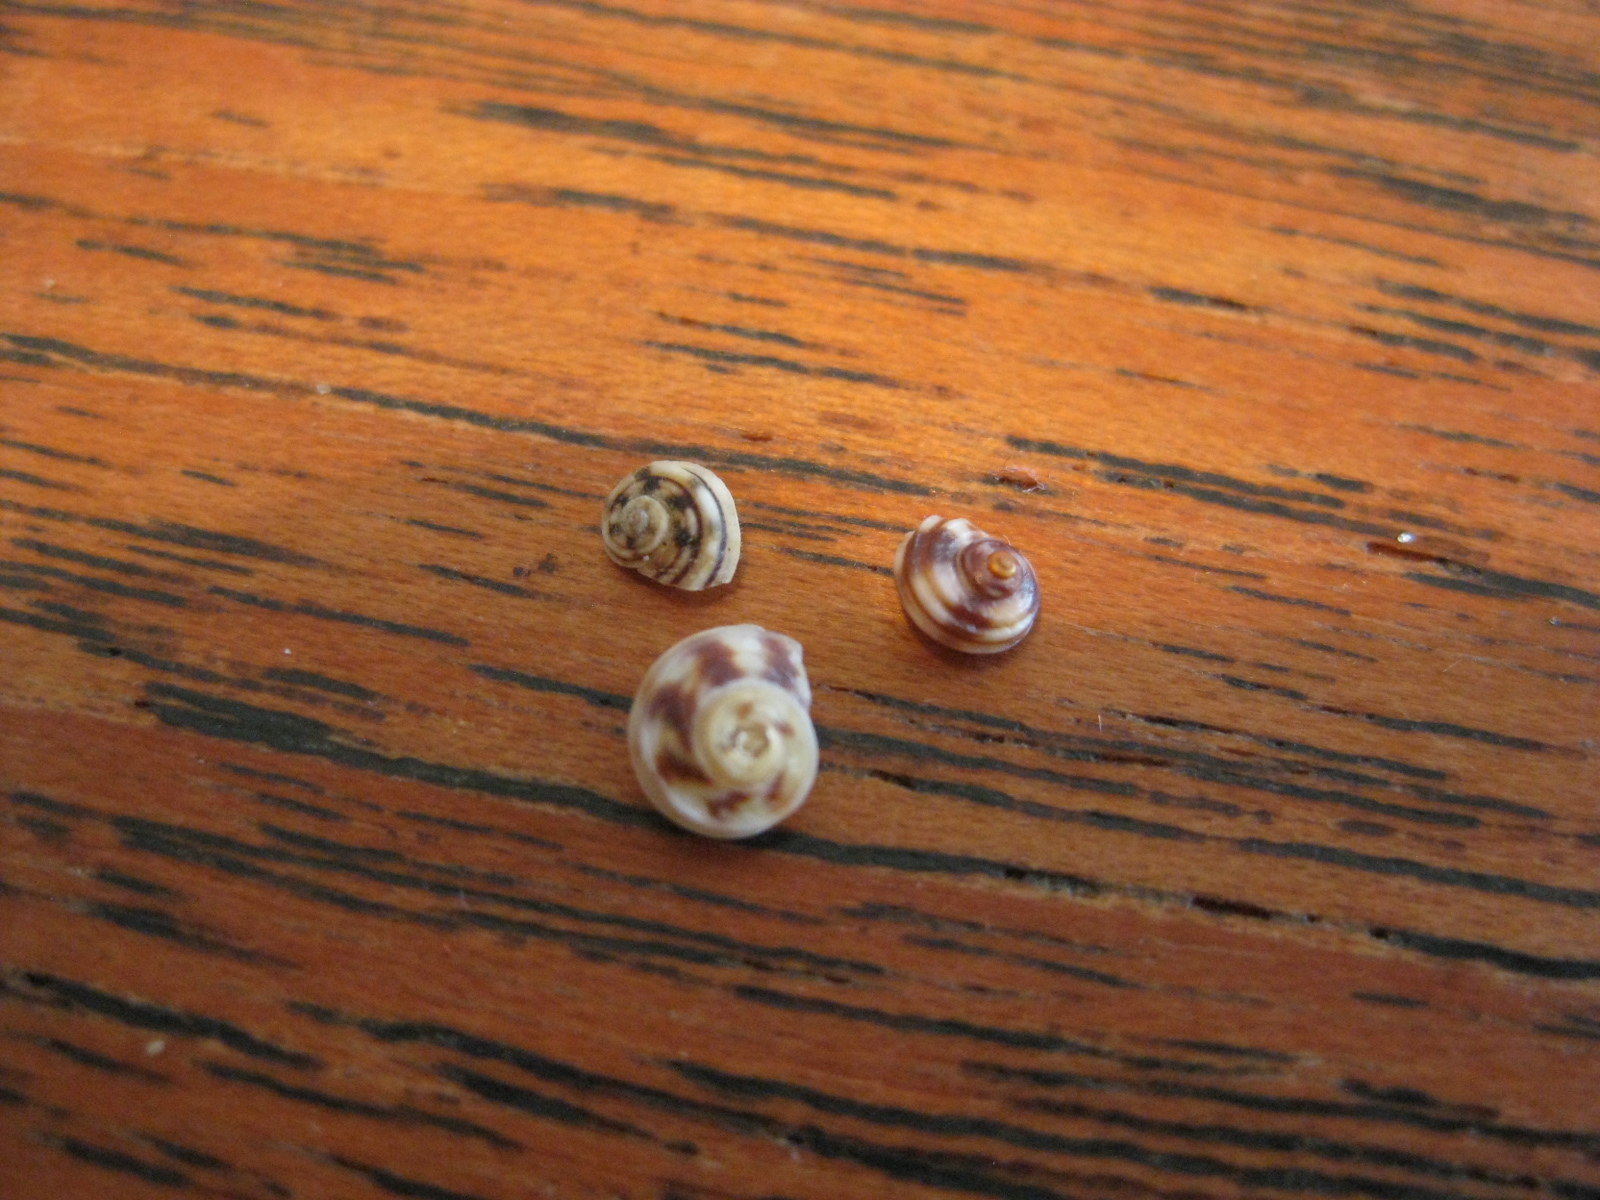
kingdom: Animalia
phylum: Mollusca
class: Gastropoda
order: Littorinimorpha
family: Littorinidae
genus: Risellopsis
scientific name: Risellopsis varia
